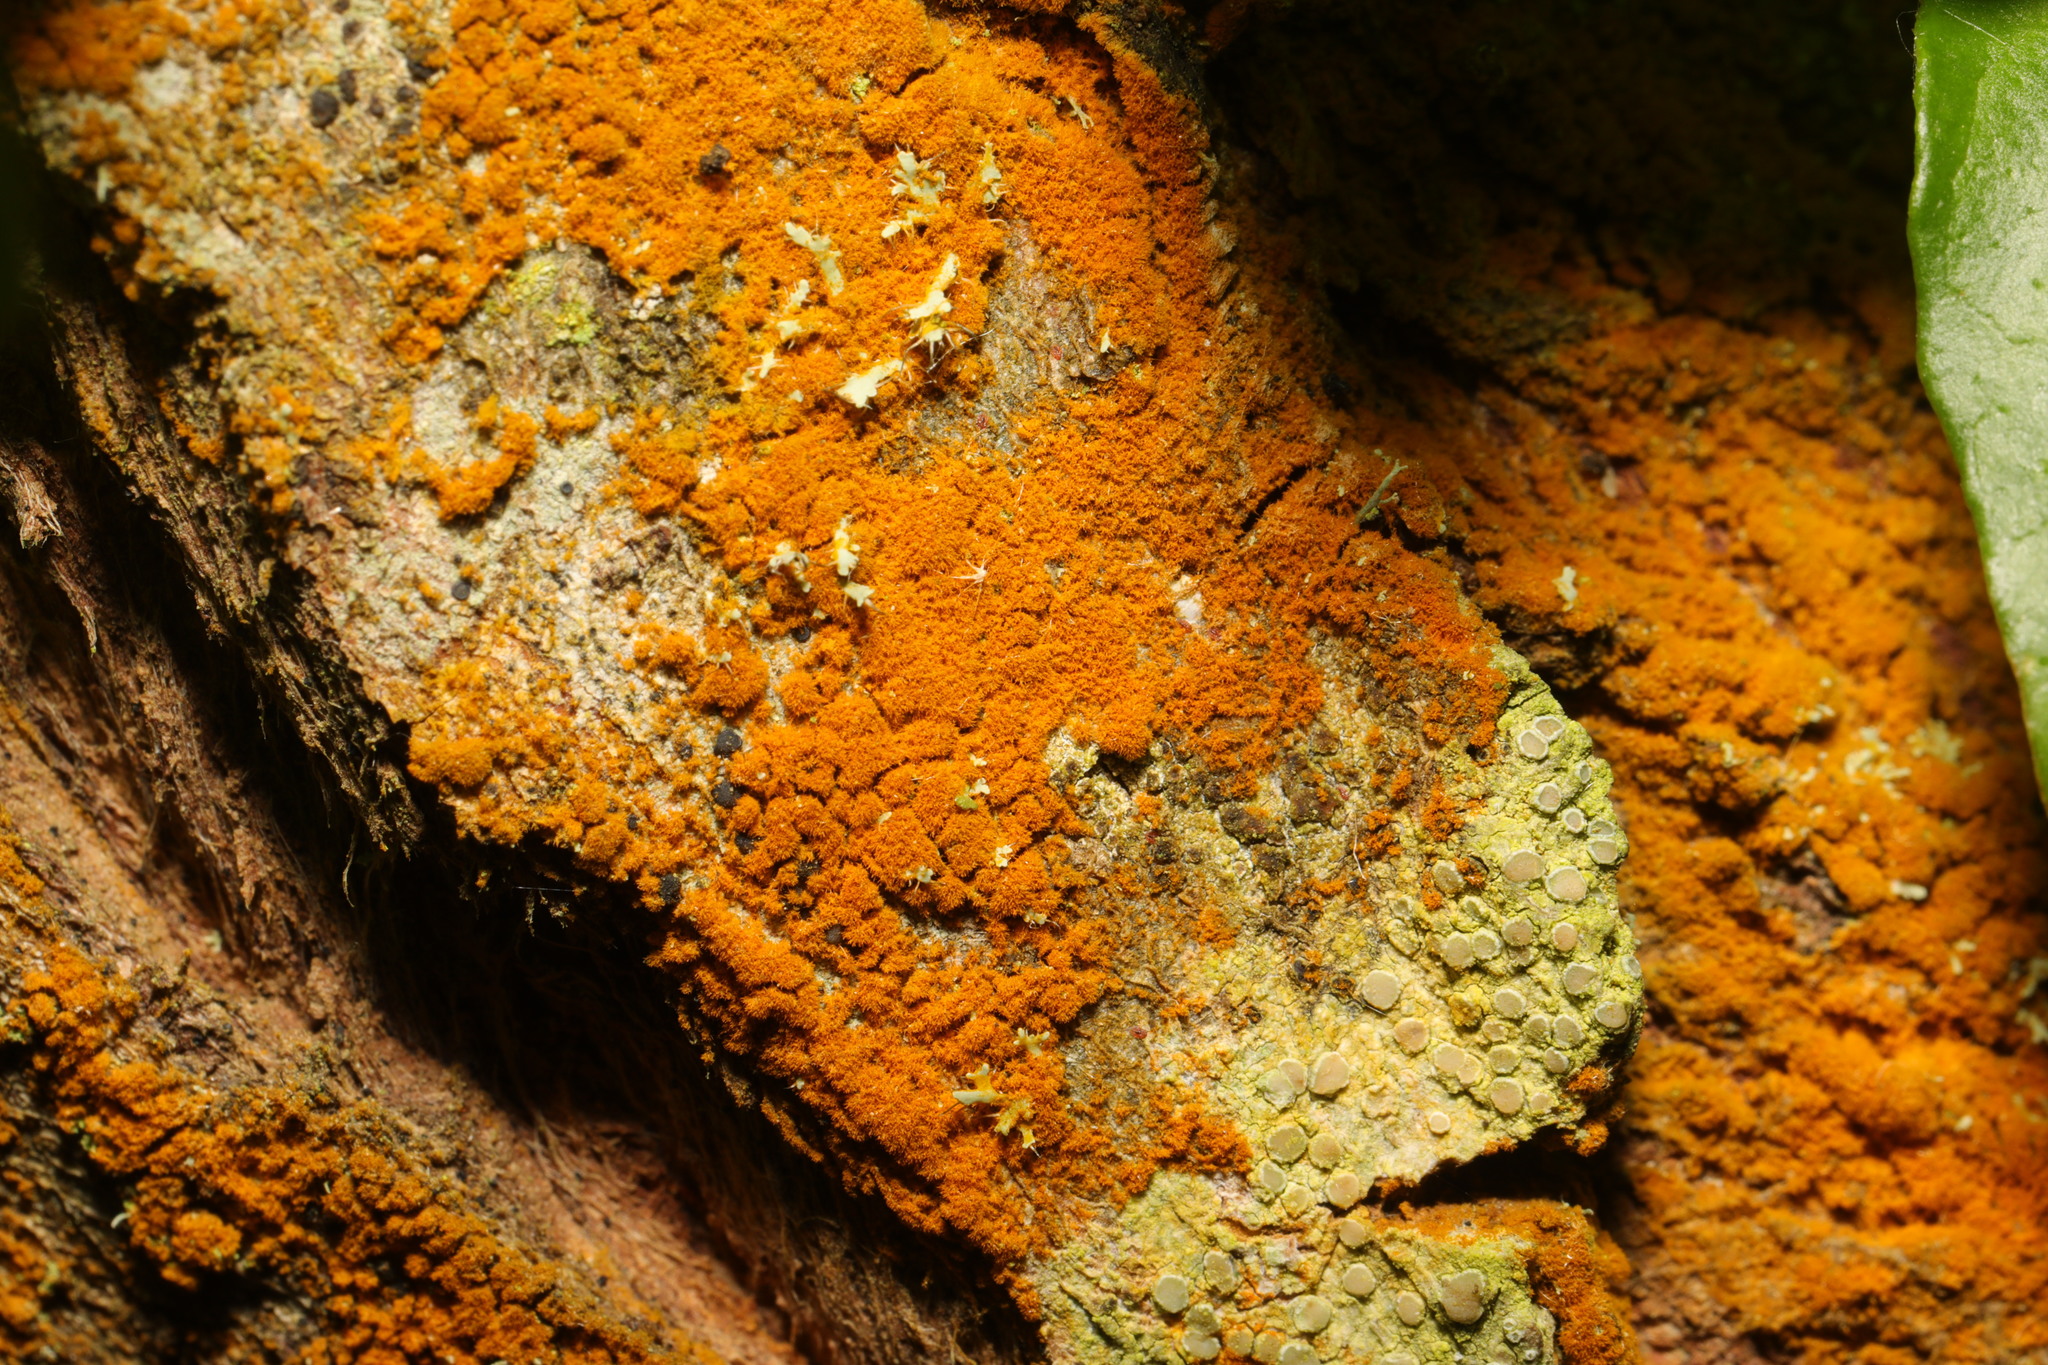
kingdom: Plantae
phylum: Chlorophyta
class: Ulvophyceae
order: Trentepohliales
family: Trentepohliaceae
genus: Trentepohlia
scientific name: Trentepohlia
